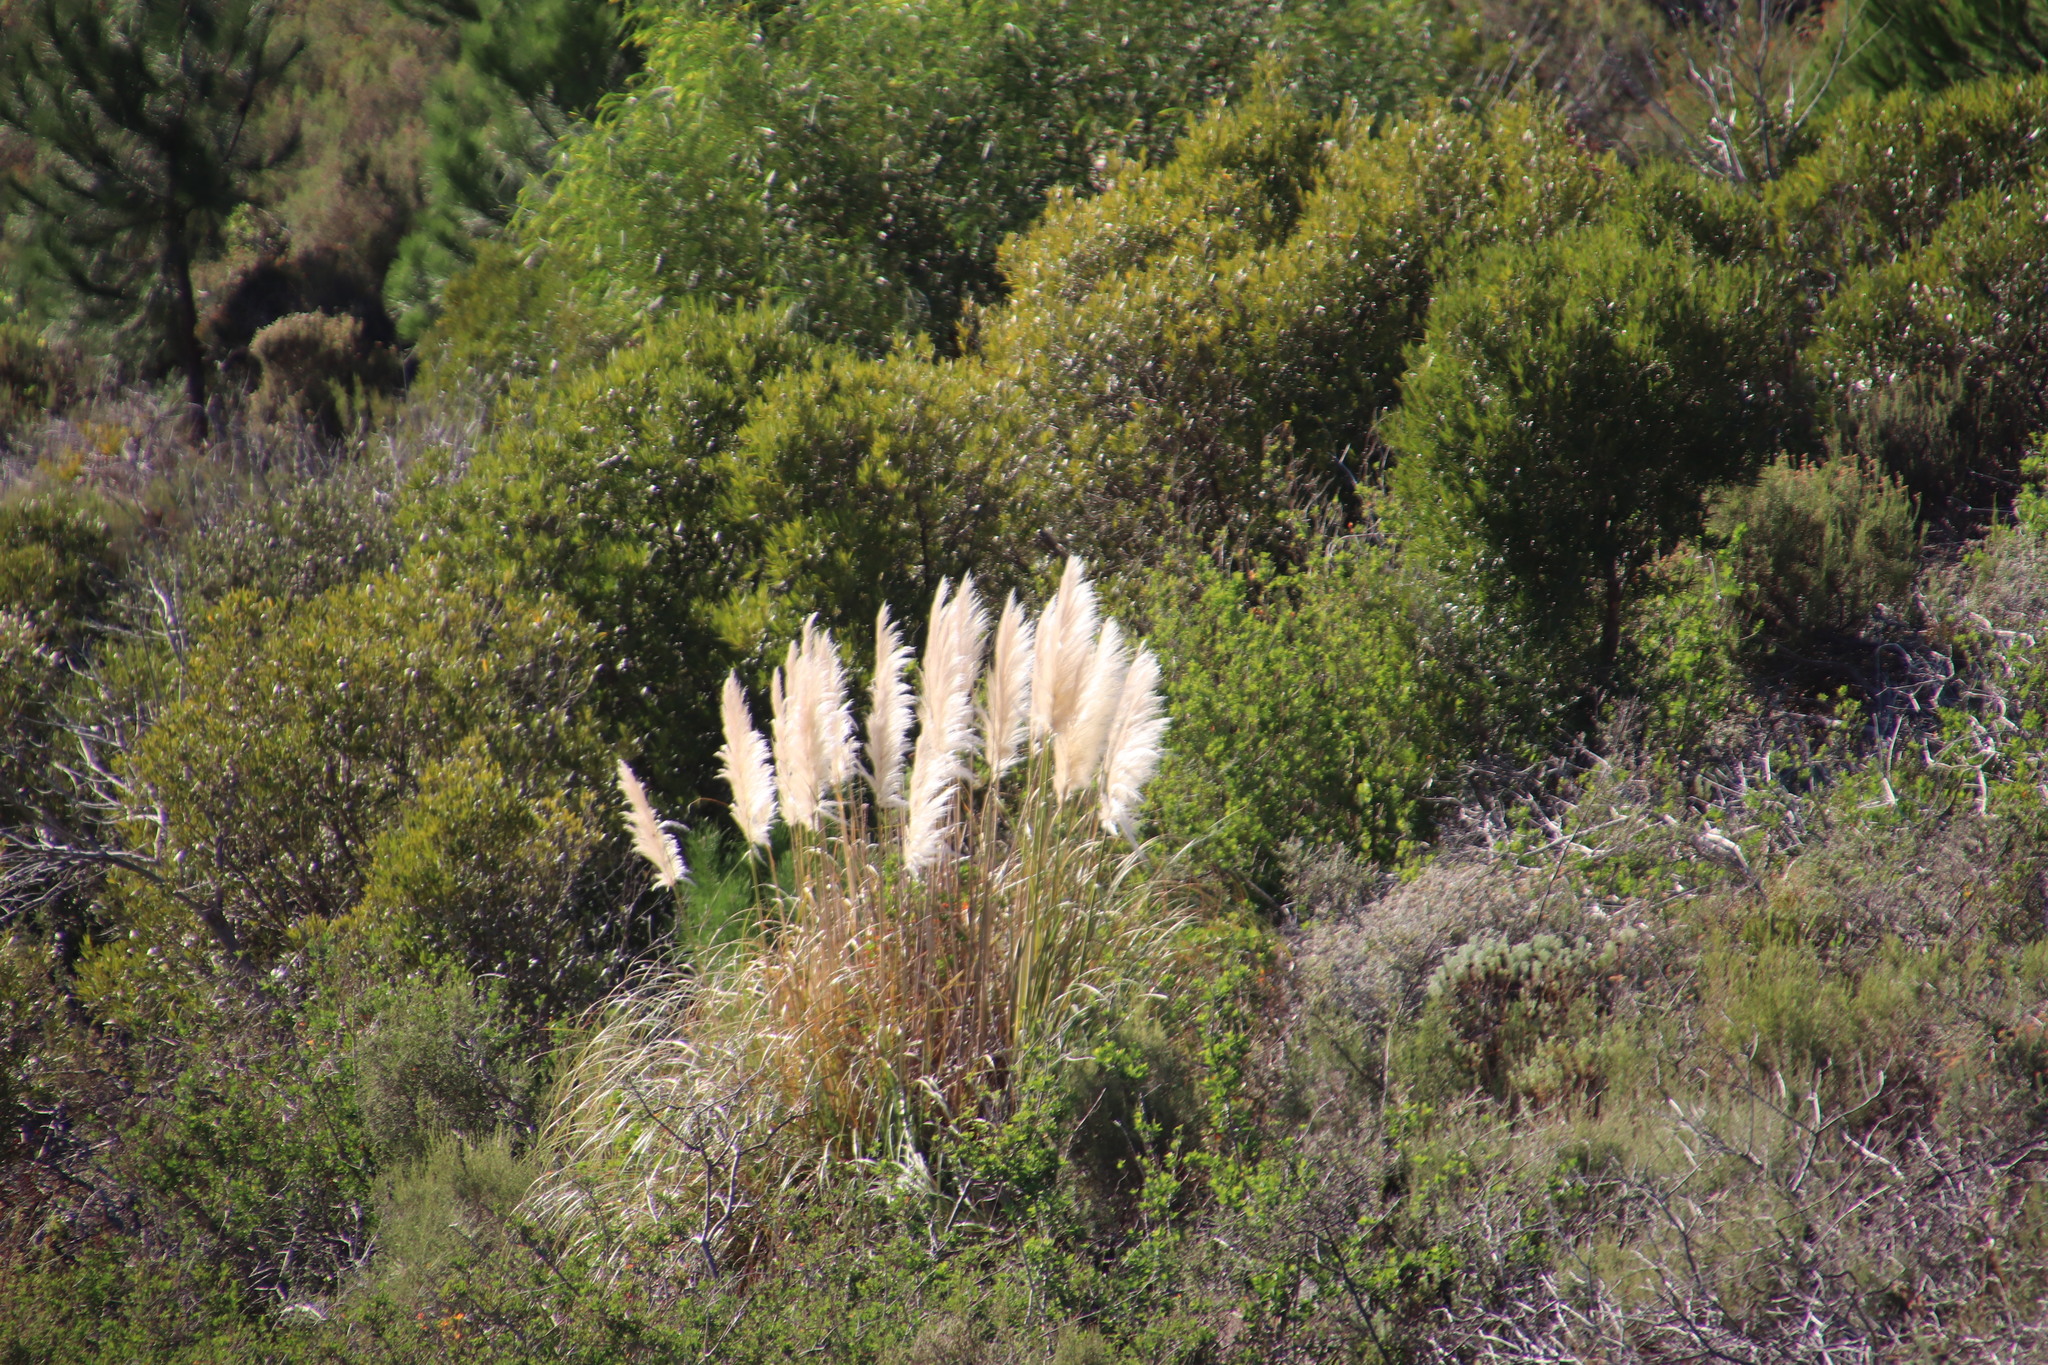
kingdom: Plantae
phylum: Tracheophyta
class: Liliopsida
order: Poales
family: Poaceae
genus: Cortaderia
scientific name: Cortaderia selloana
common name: Uruguayan pampas grass
